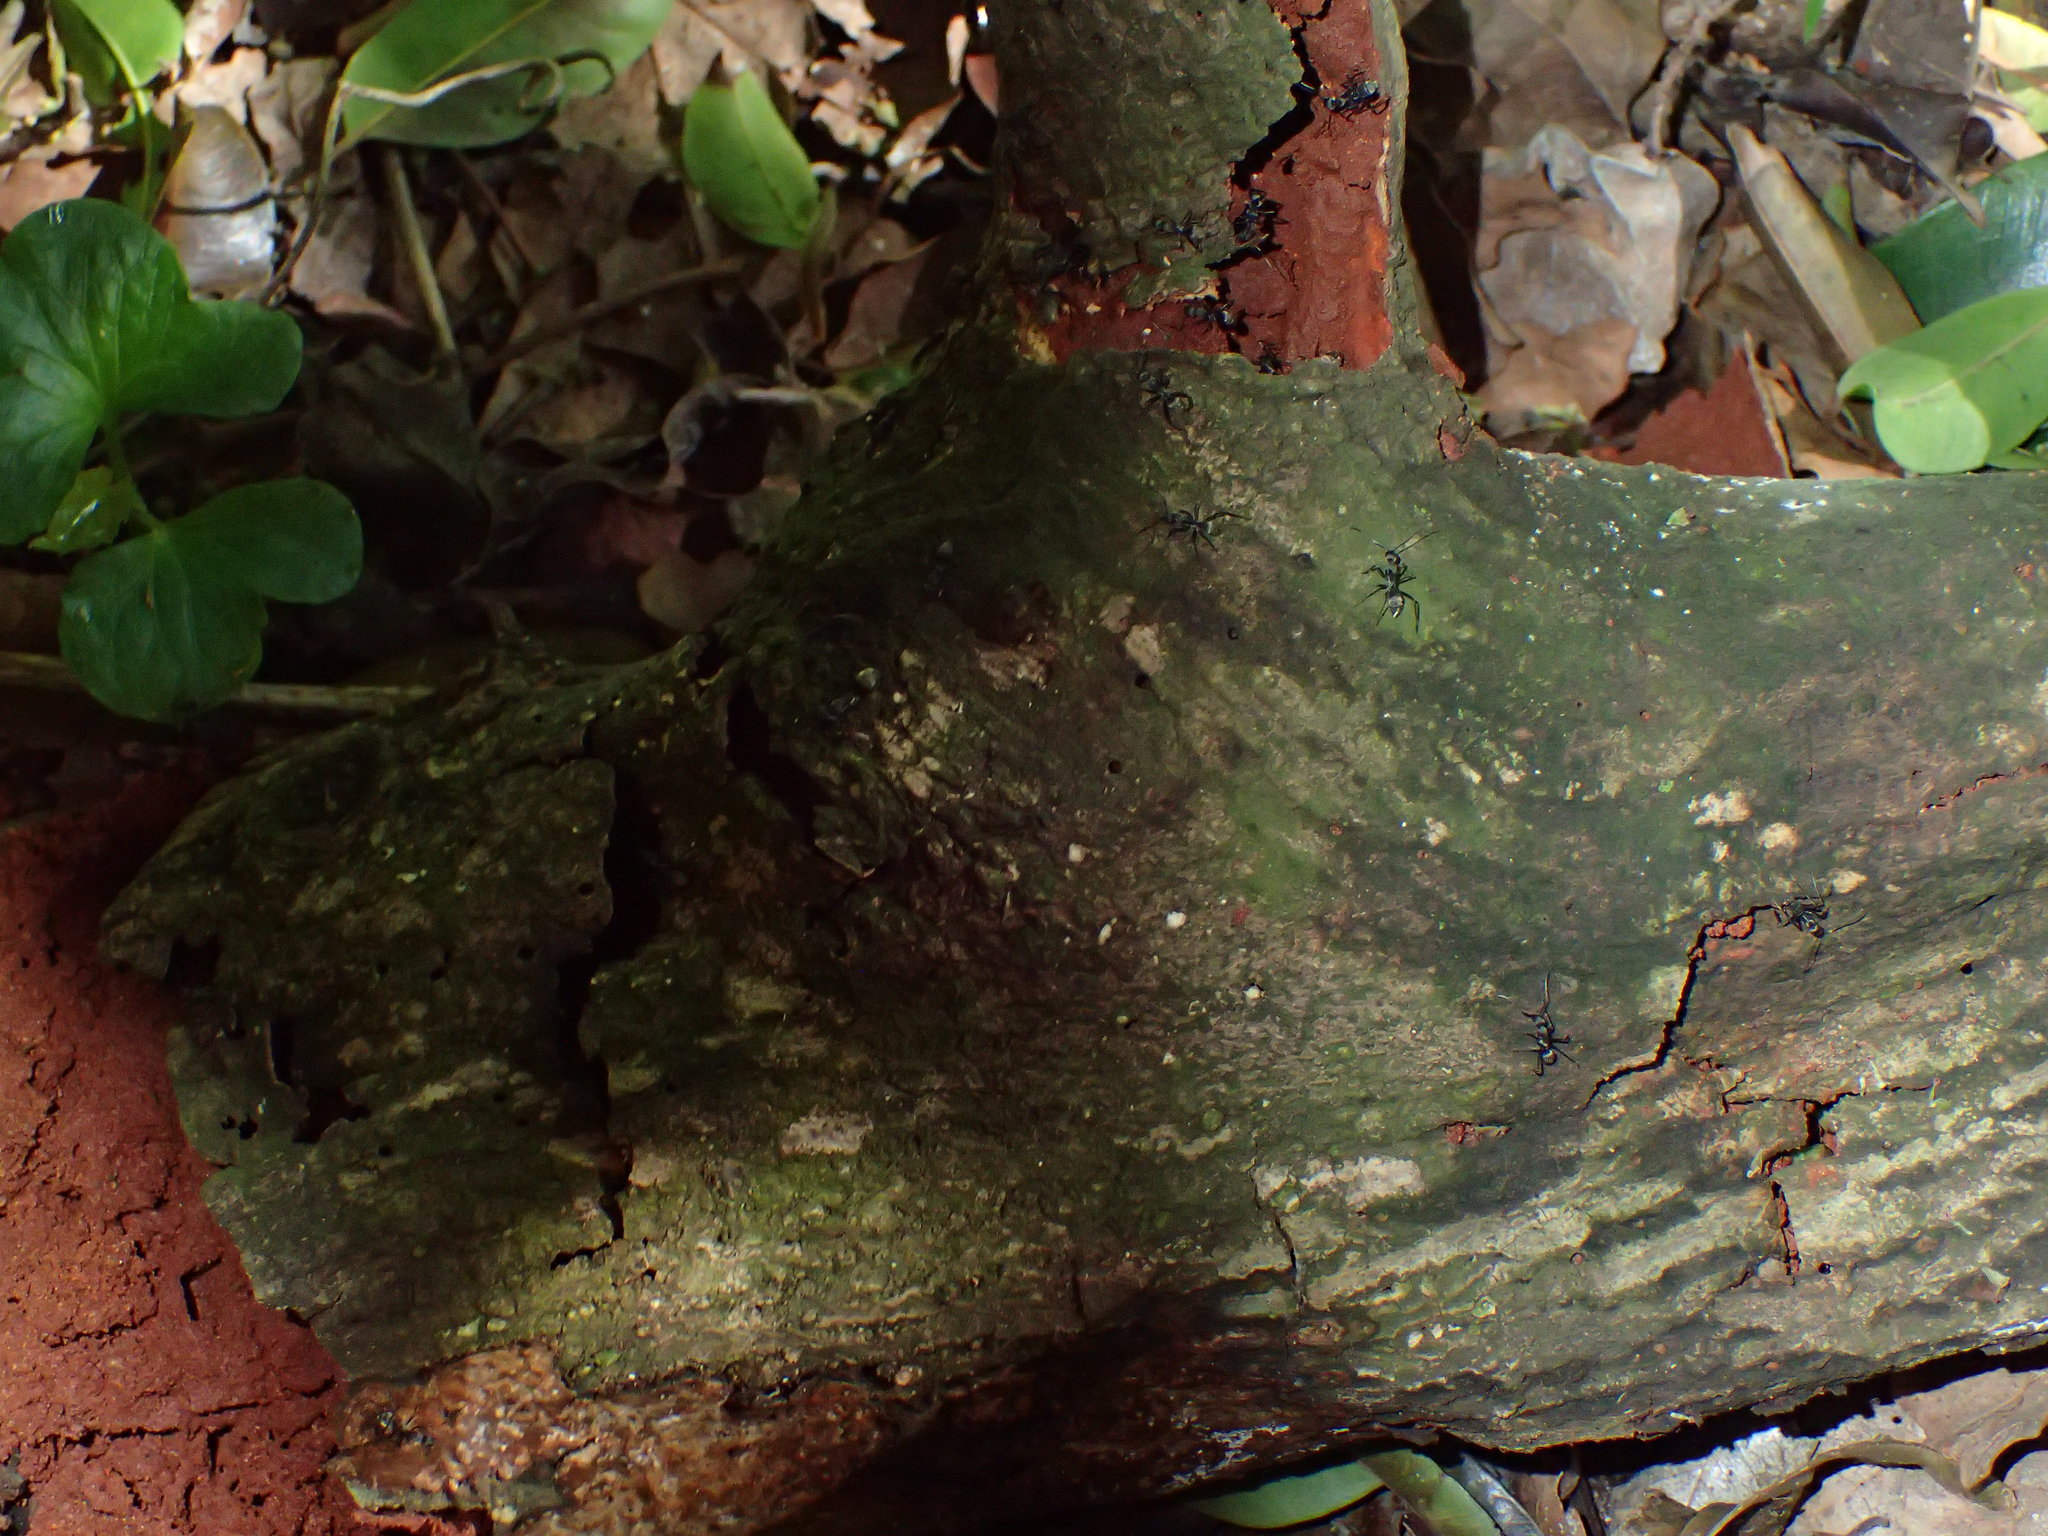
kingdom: Animalia
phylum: Arthropoda
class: Insecta
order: Hymenoptera
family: Formicidae
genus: Camponotus
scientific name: Camponotus cinctellus
